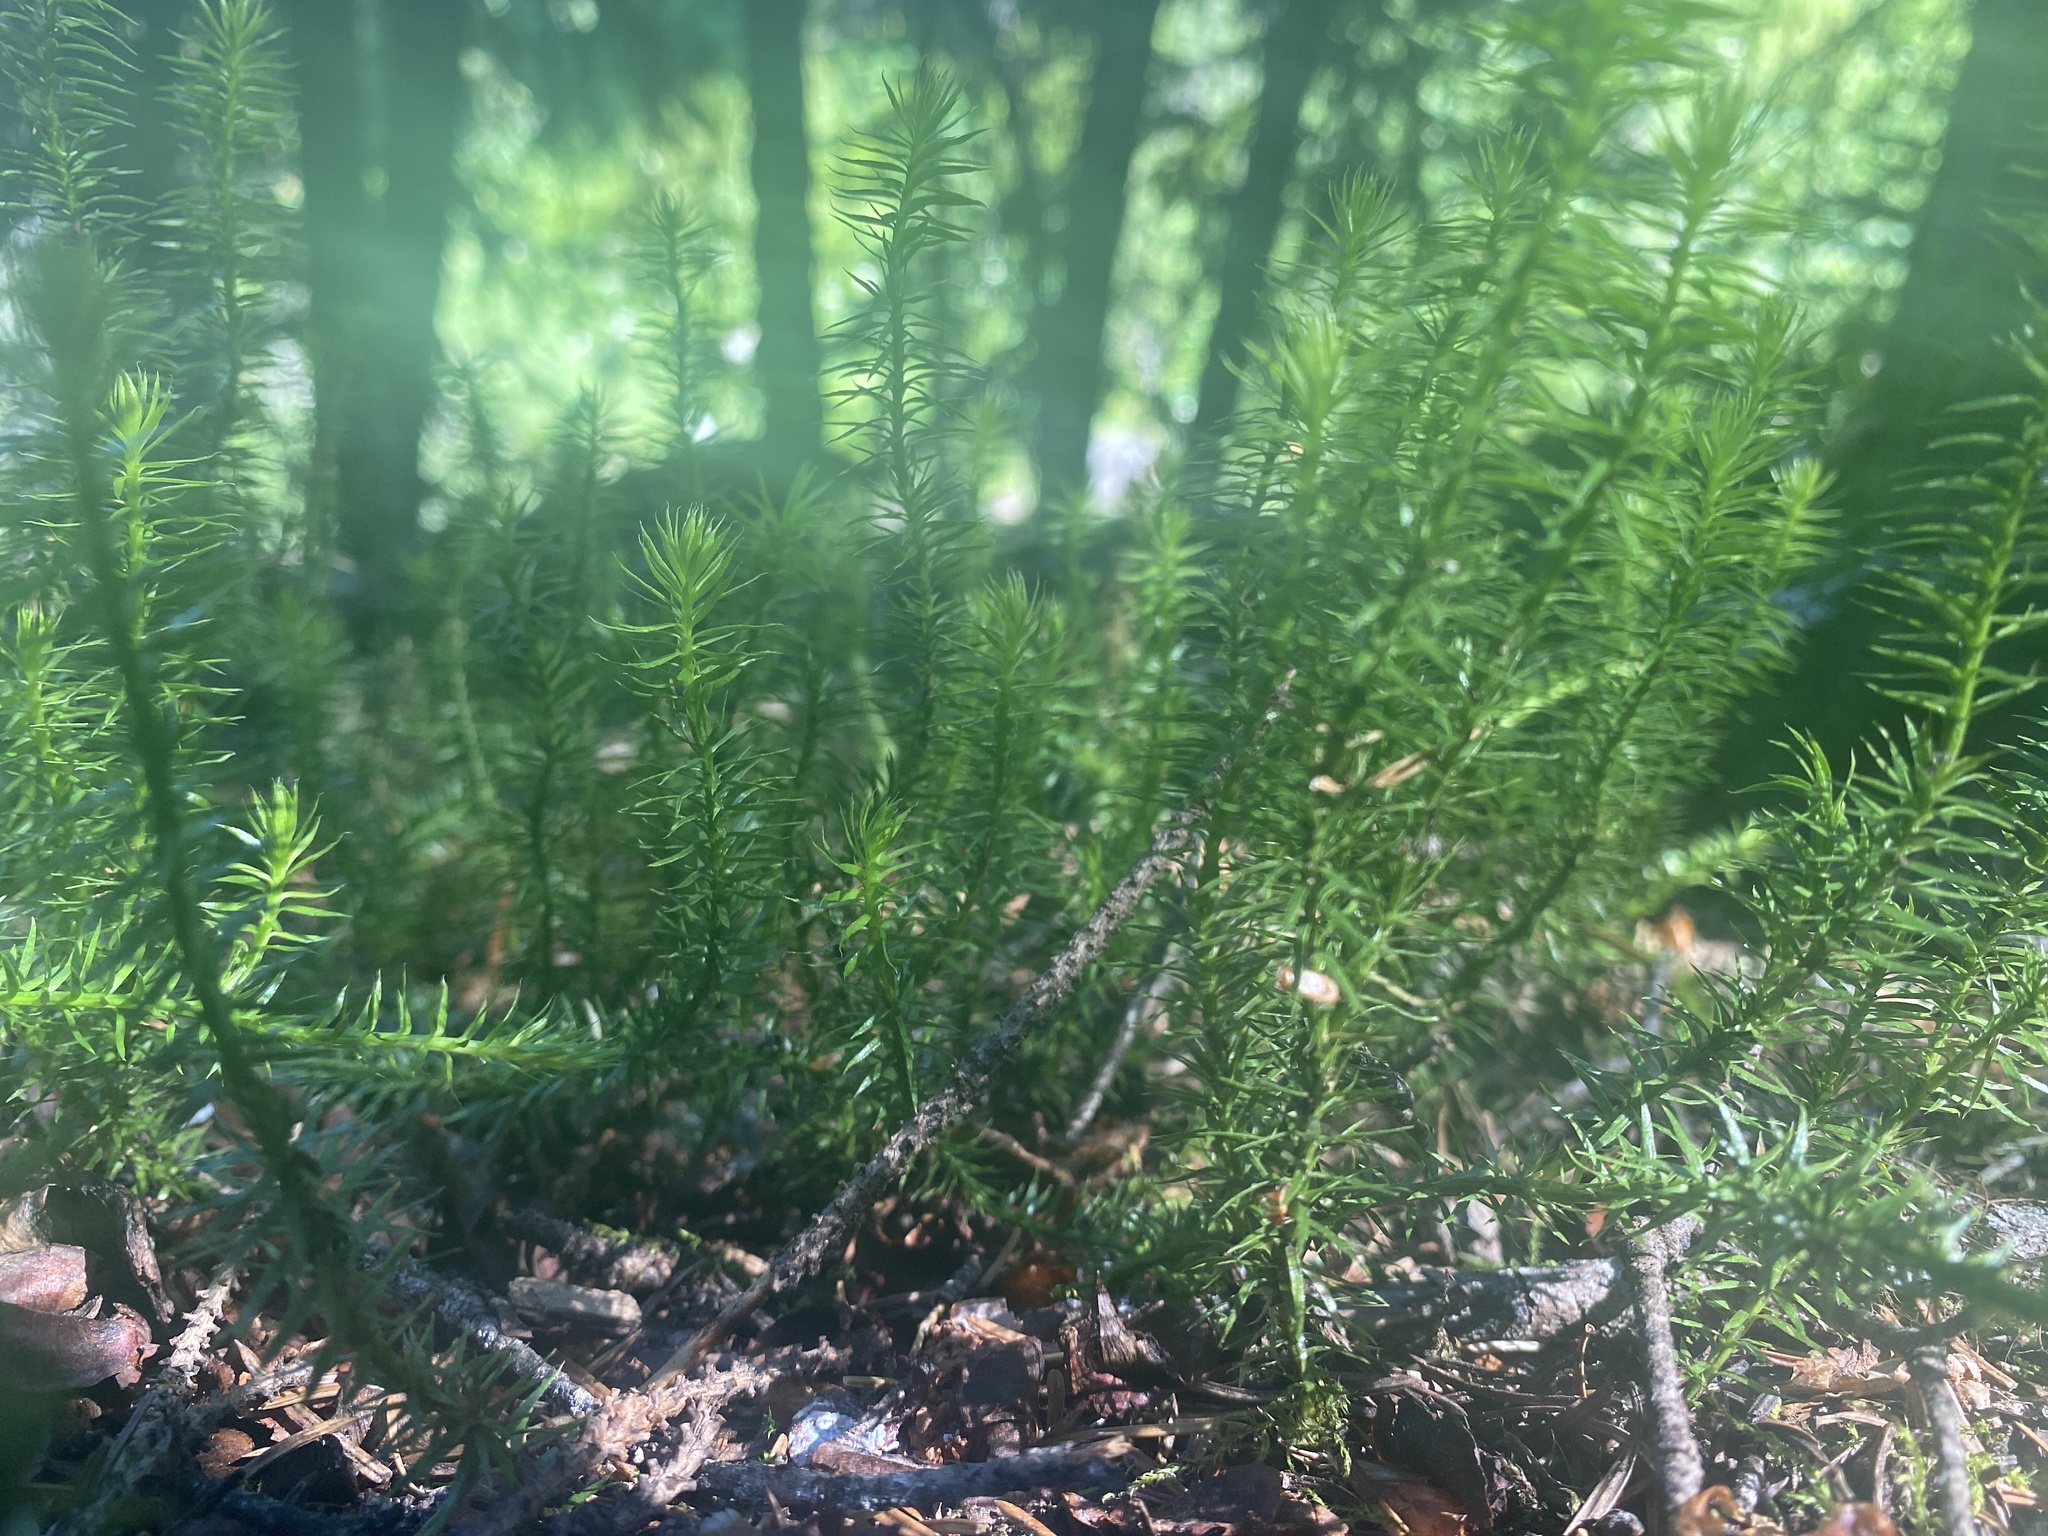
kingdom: Plantae
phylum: Tracheophyta
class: Lycopodiopsida
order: Lycopodiales
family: Lycopodiaceae
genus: Spinulum
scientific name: Spinulum annotinum
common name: Interrupted club-moss
